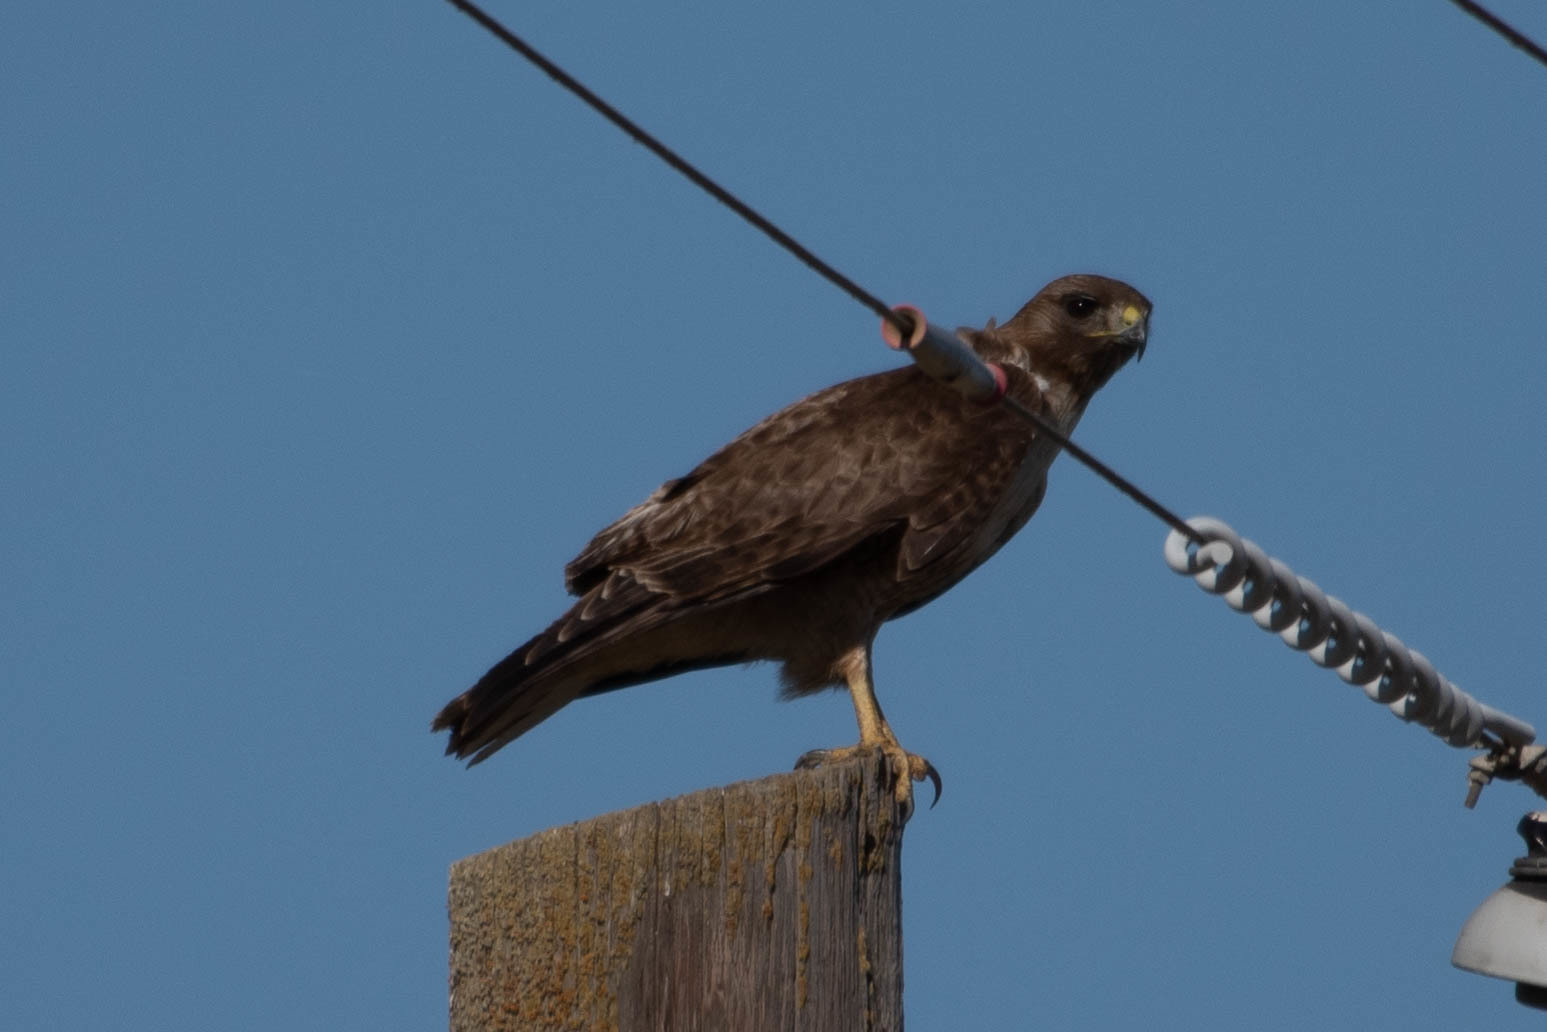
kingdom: Animalia
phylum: Chordata
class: Aves
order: Accipitriformes
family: Accipitridae
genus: Buteo
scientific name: Buteo jamaicensis
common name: Red-tailed hawk
